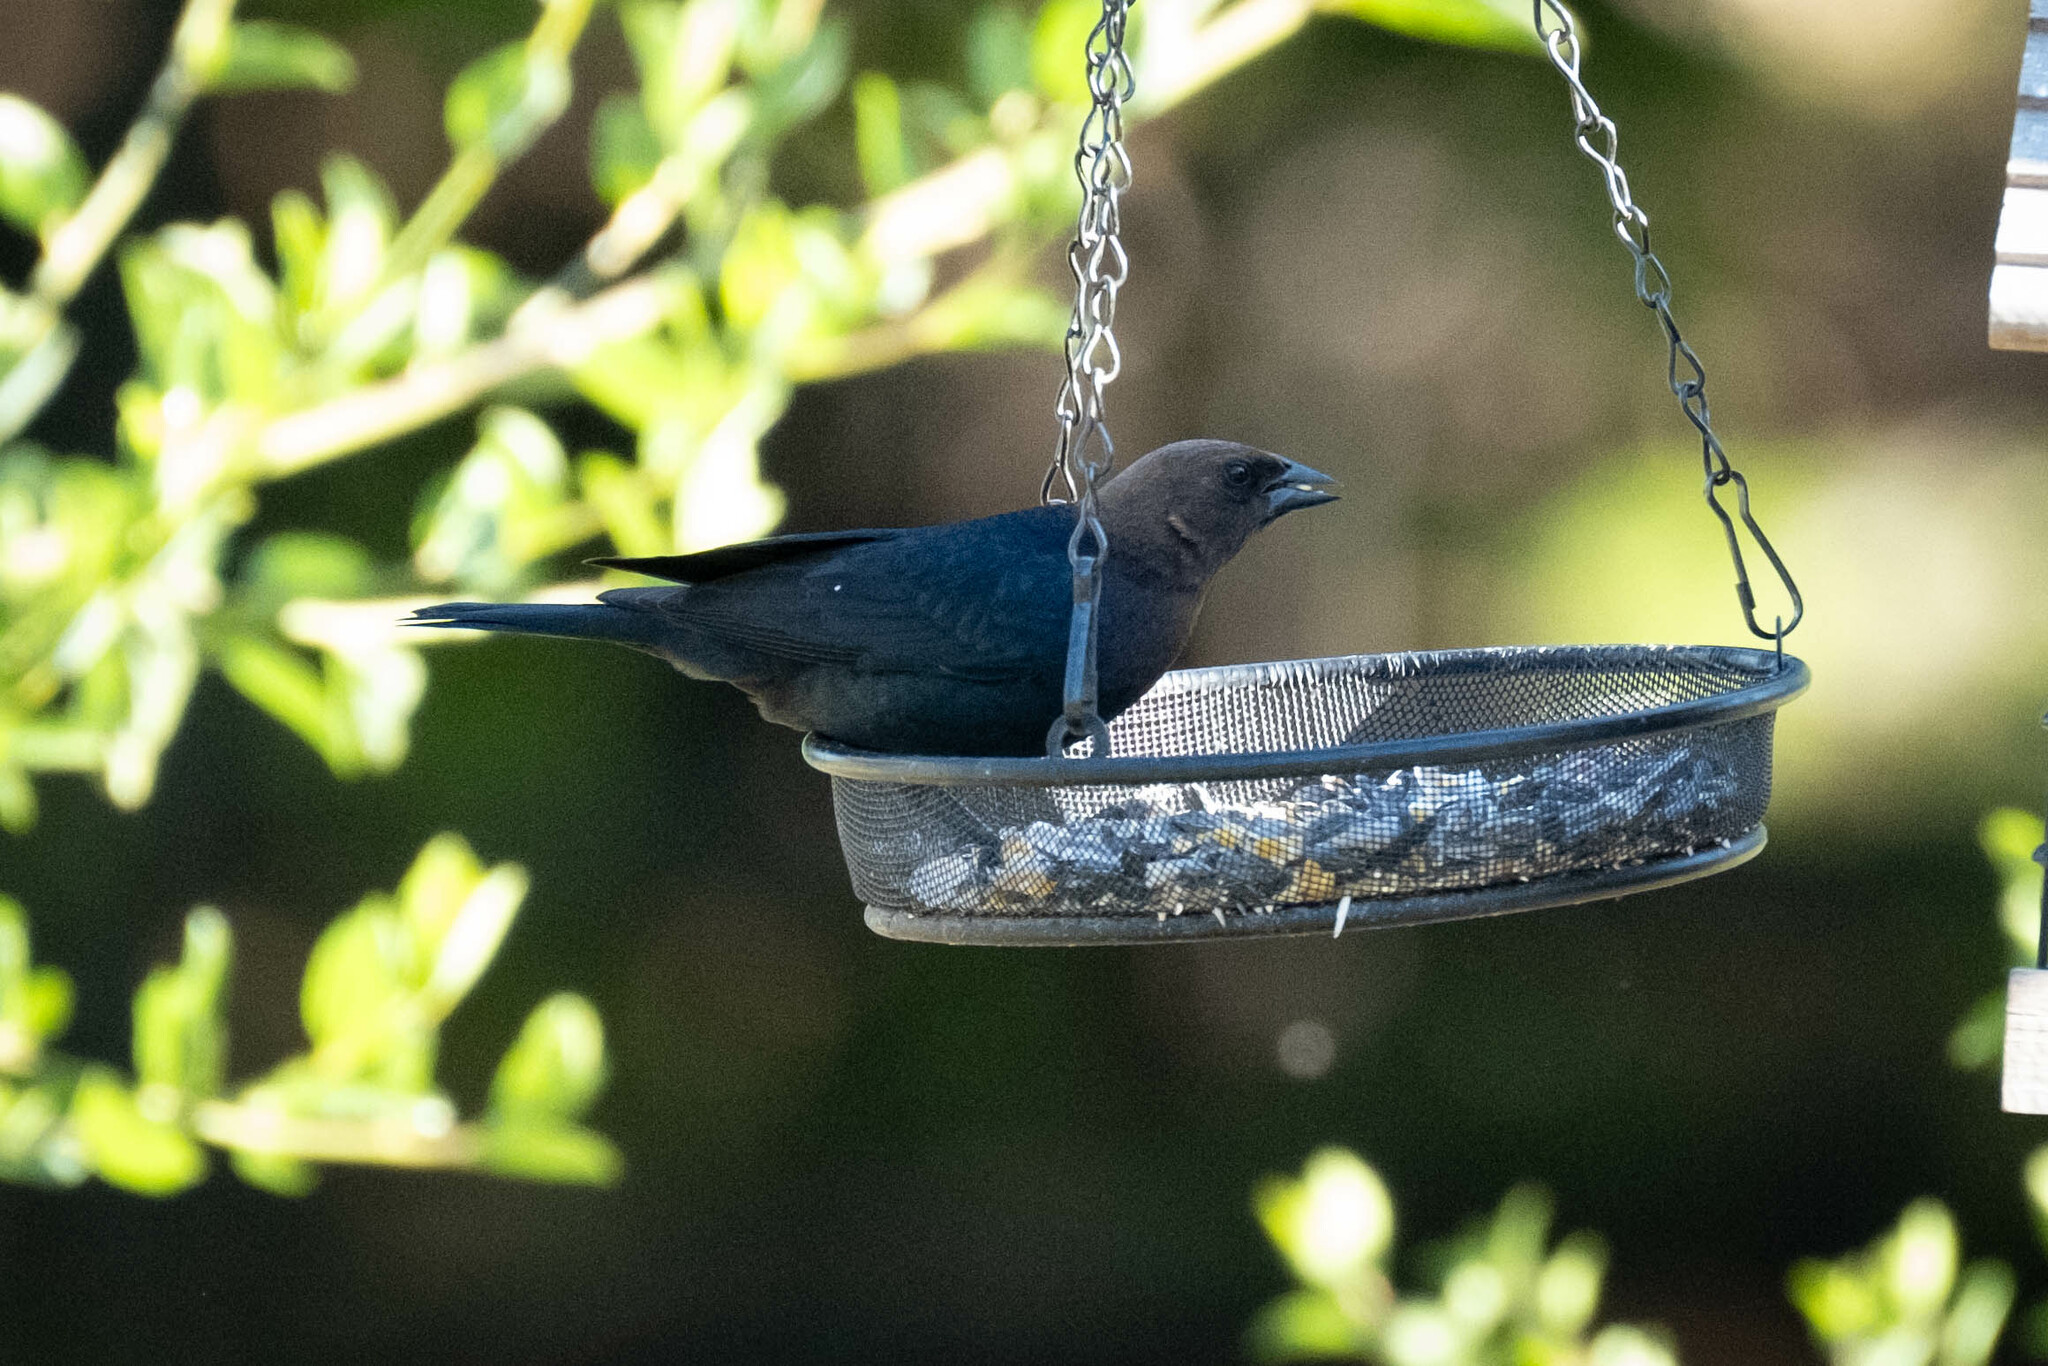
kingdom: Animalia
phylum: Chordata
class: Aves
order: Passeriformes
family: Icteridae
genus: Molothrus
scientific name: Molothrus ater
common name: Brown-headed cowbird
